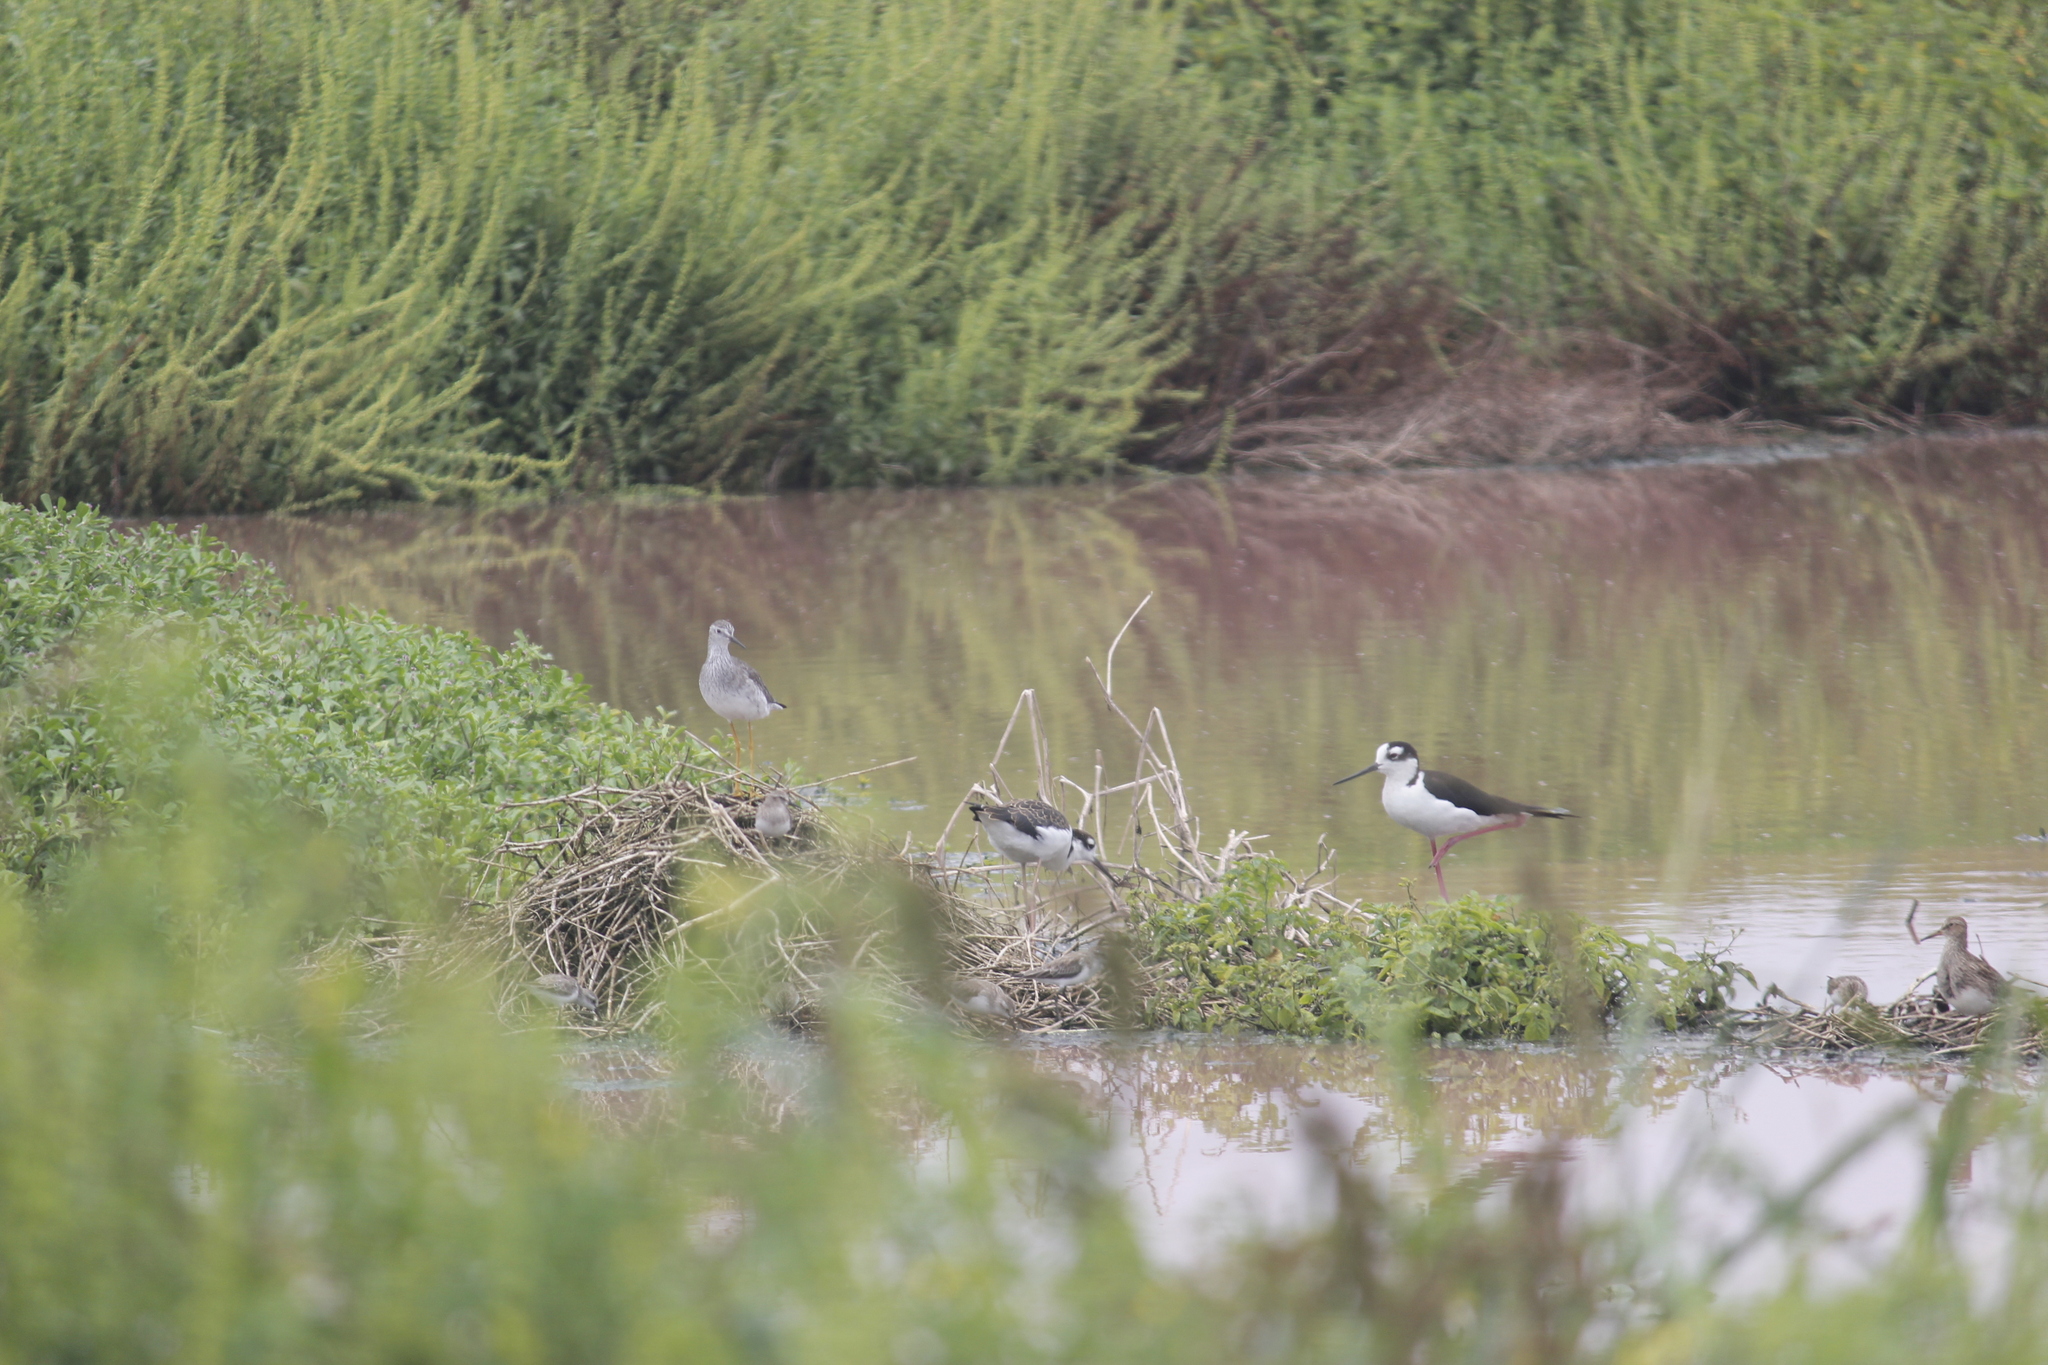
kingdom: Animalia
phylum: Chordata
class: Aves
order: Charadriiformes
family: Recurvirostridae
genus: Himantopus
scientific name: Himantopus mexicanus
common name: Black-necked stilt
